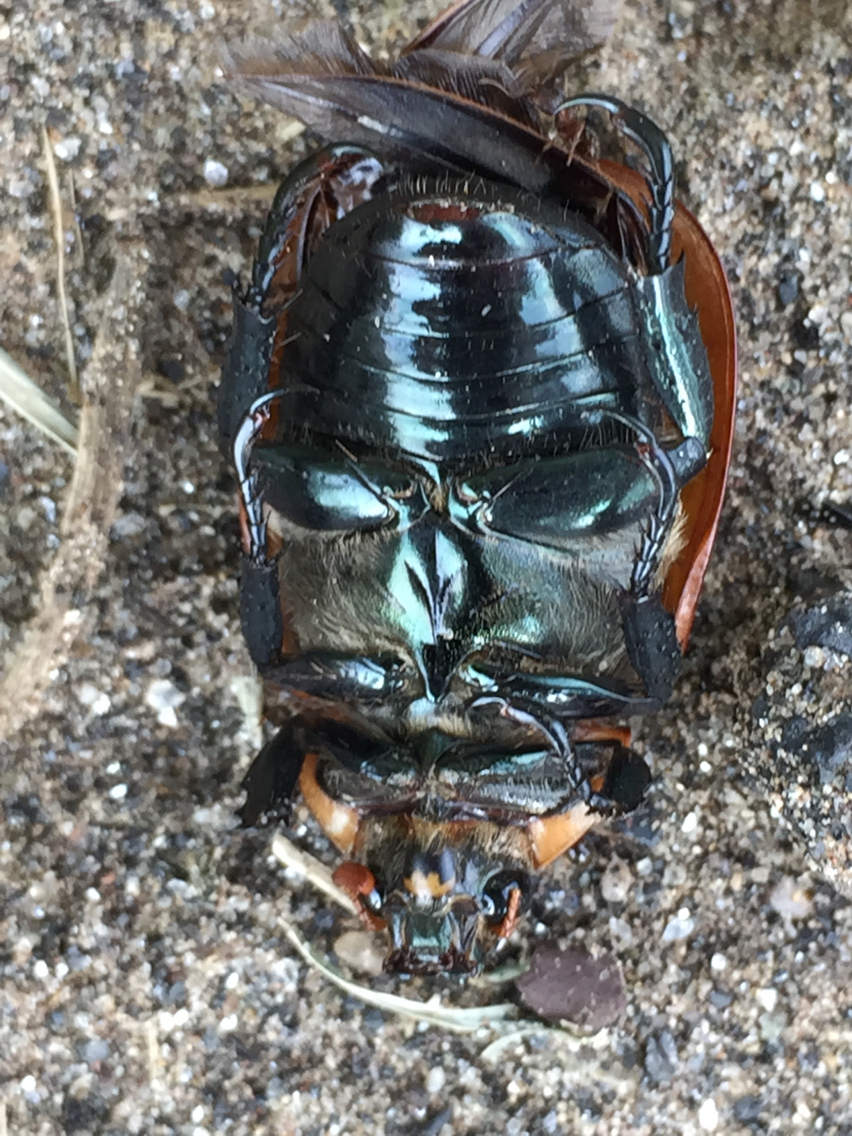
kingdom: Animalia
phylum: Arthropoda
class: Insecta
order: Coleoptera
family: Scarabaeidae
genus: Pelidnota
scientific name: Pelidnota punctata
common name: Grapevine beetle
